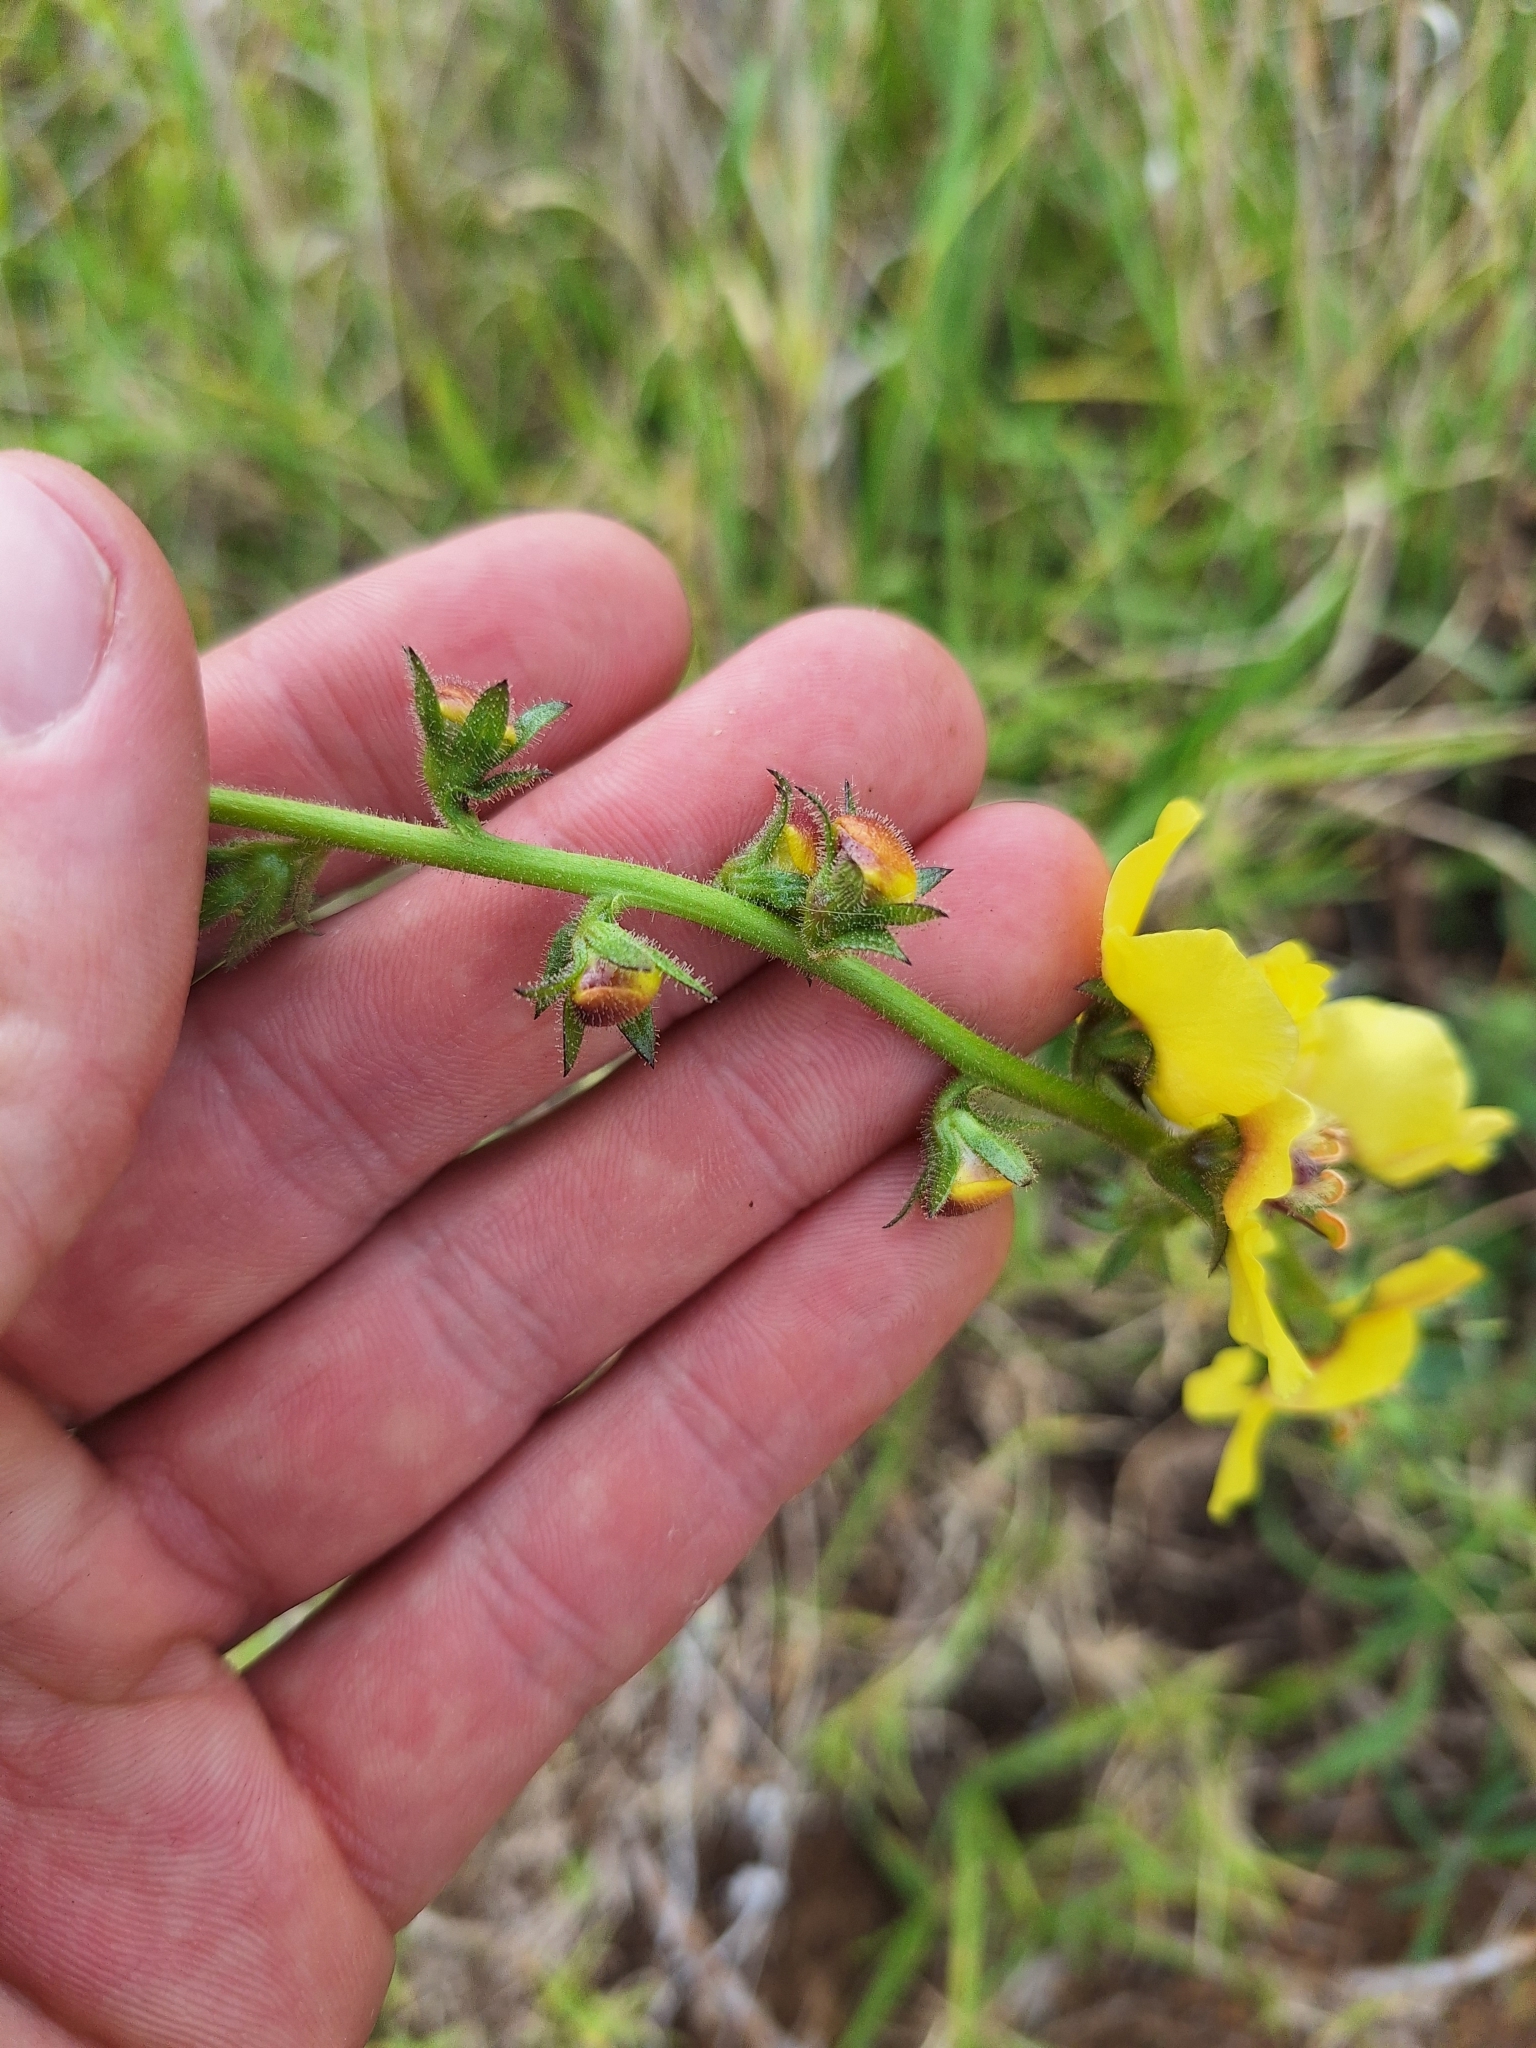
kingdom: Plantae
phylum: Tracheophyta
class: Magnoliopsida
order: Lamiales
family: Scrophulariaceae
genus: Verbascum
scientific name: Verbascum virgatum
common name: Twiggy mullein
